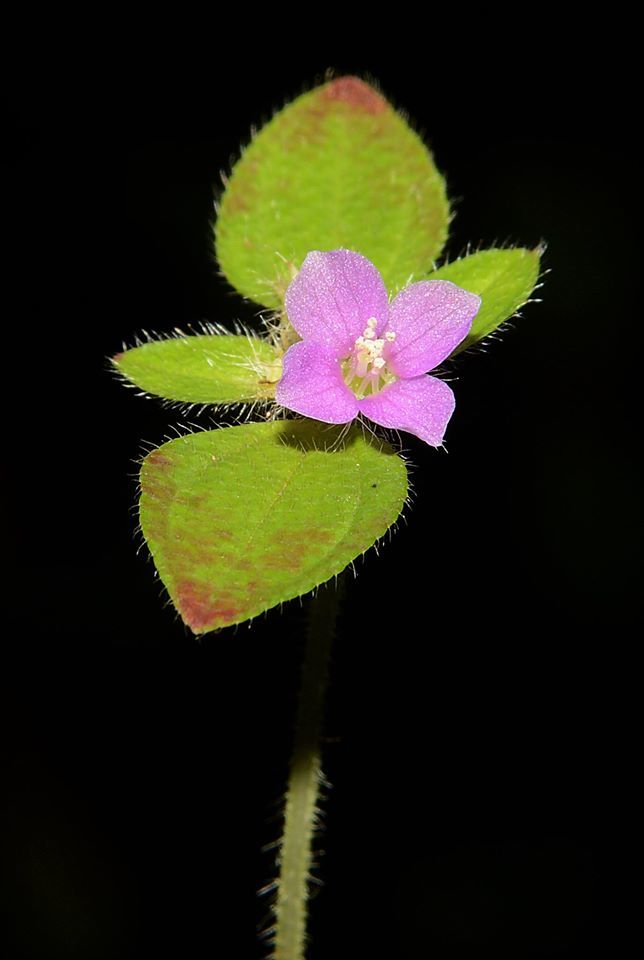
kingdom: Plantae
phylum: Tracheophyta
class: Magnoliopsida
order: Myrtales
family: Melastomataceae
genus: Osbeckia
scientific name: Osbeckia muralis
